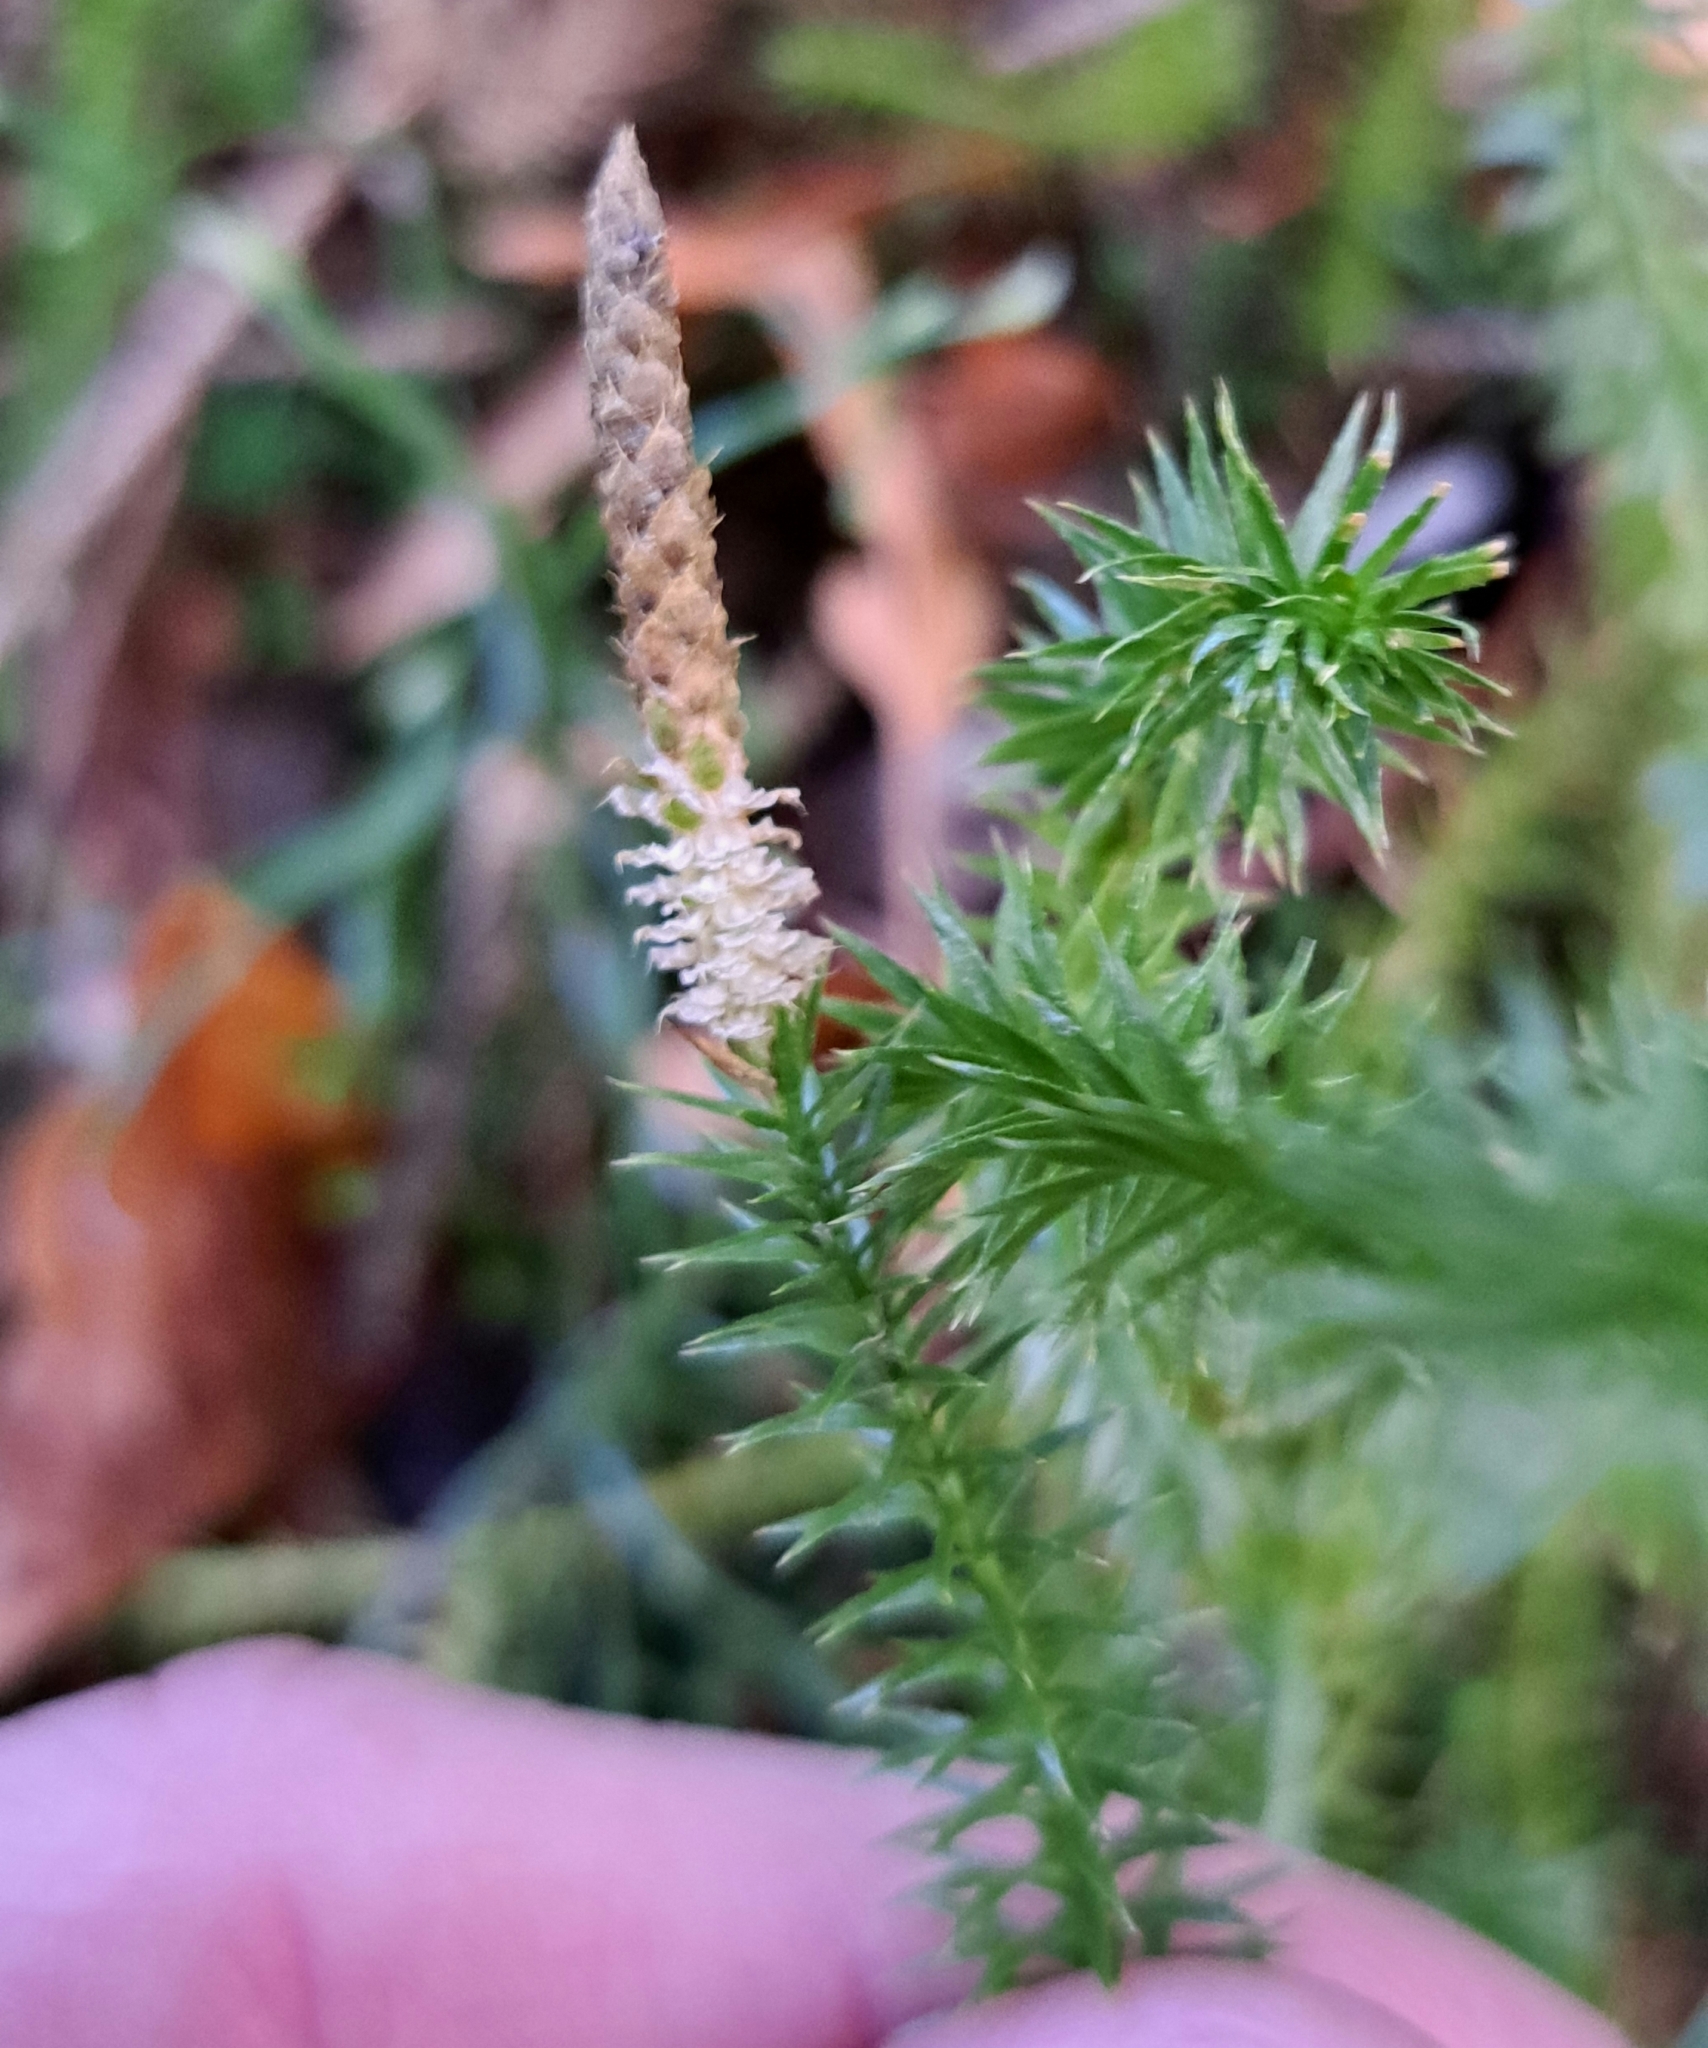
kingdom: Plantae
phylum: Tracheophyta
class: Lycopodiopsida
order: Lycopodiales
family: Lycopodiaceae
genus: Spinulum
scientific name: Spinulum annotinum
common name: Interrupted club-moss
